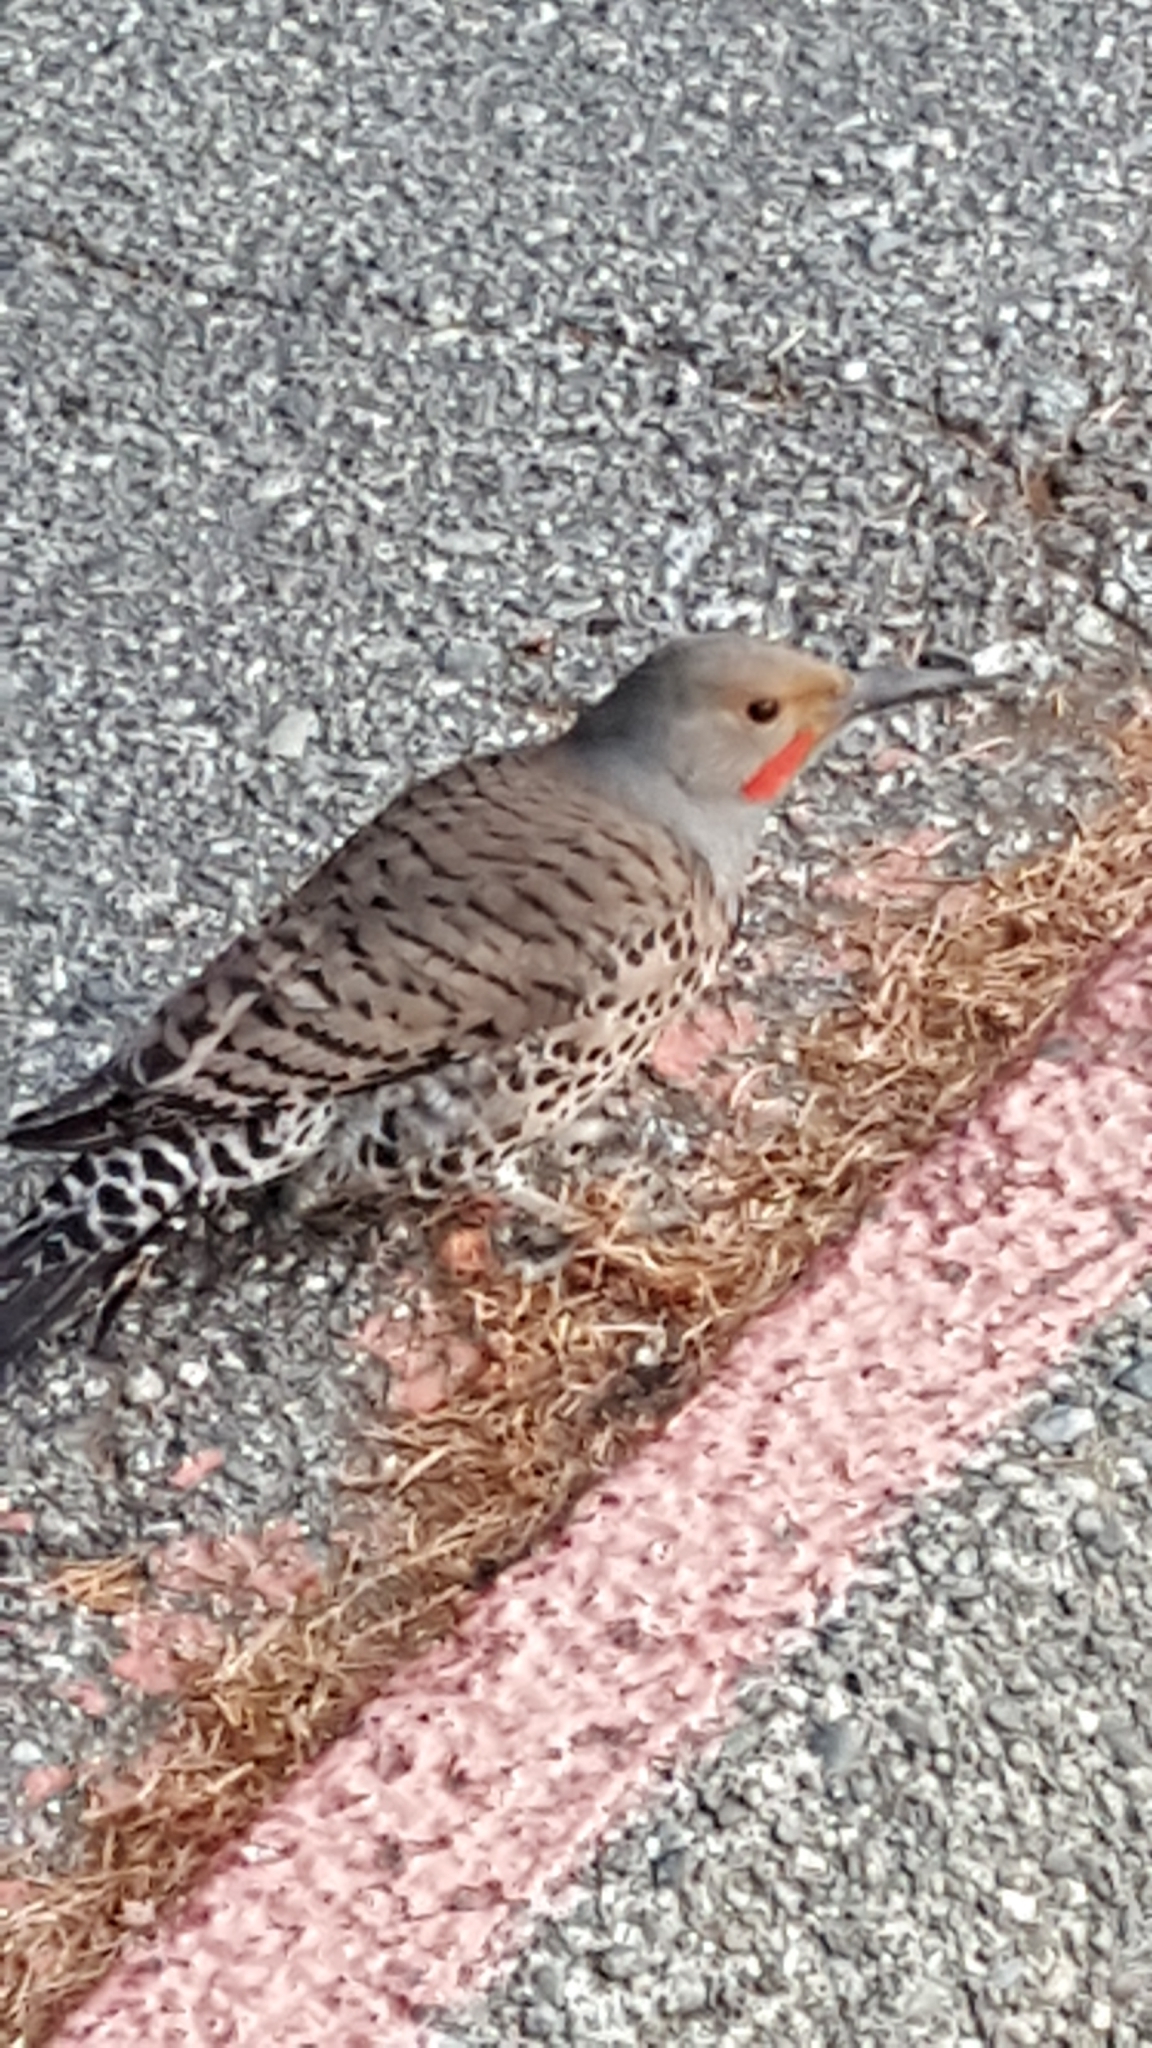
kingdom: Animalia
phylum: Chordata
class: Aves
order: Piciformes
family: Picidae
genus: Colaptes
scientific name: Colaptes auratus
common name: Northern flicker
